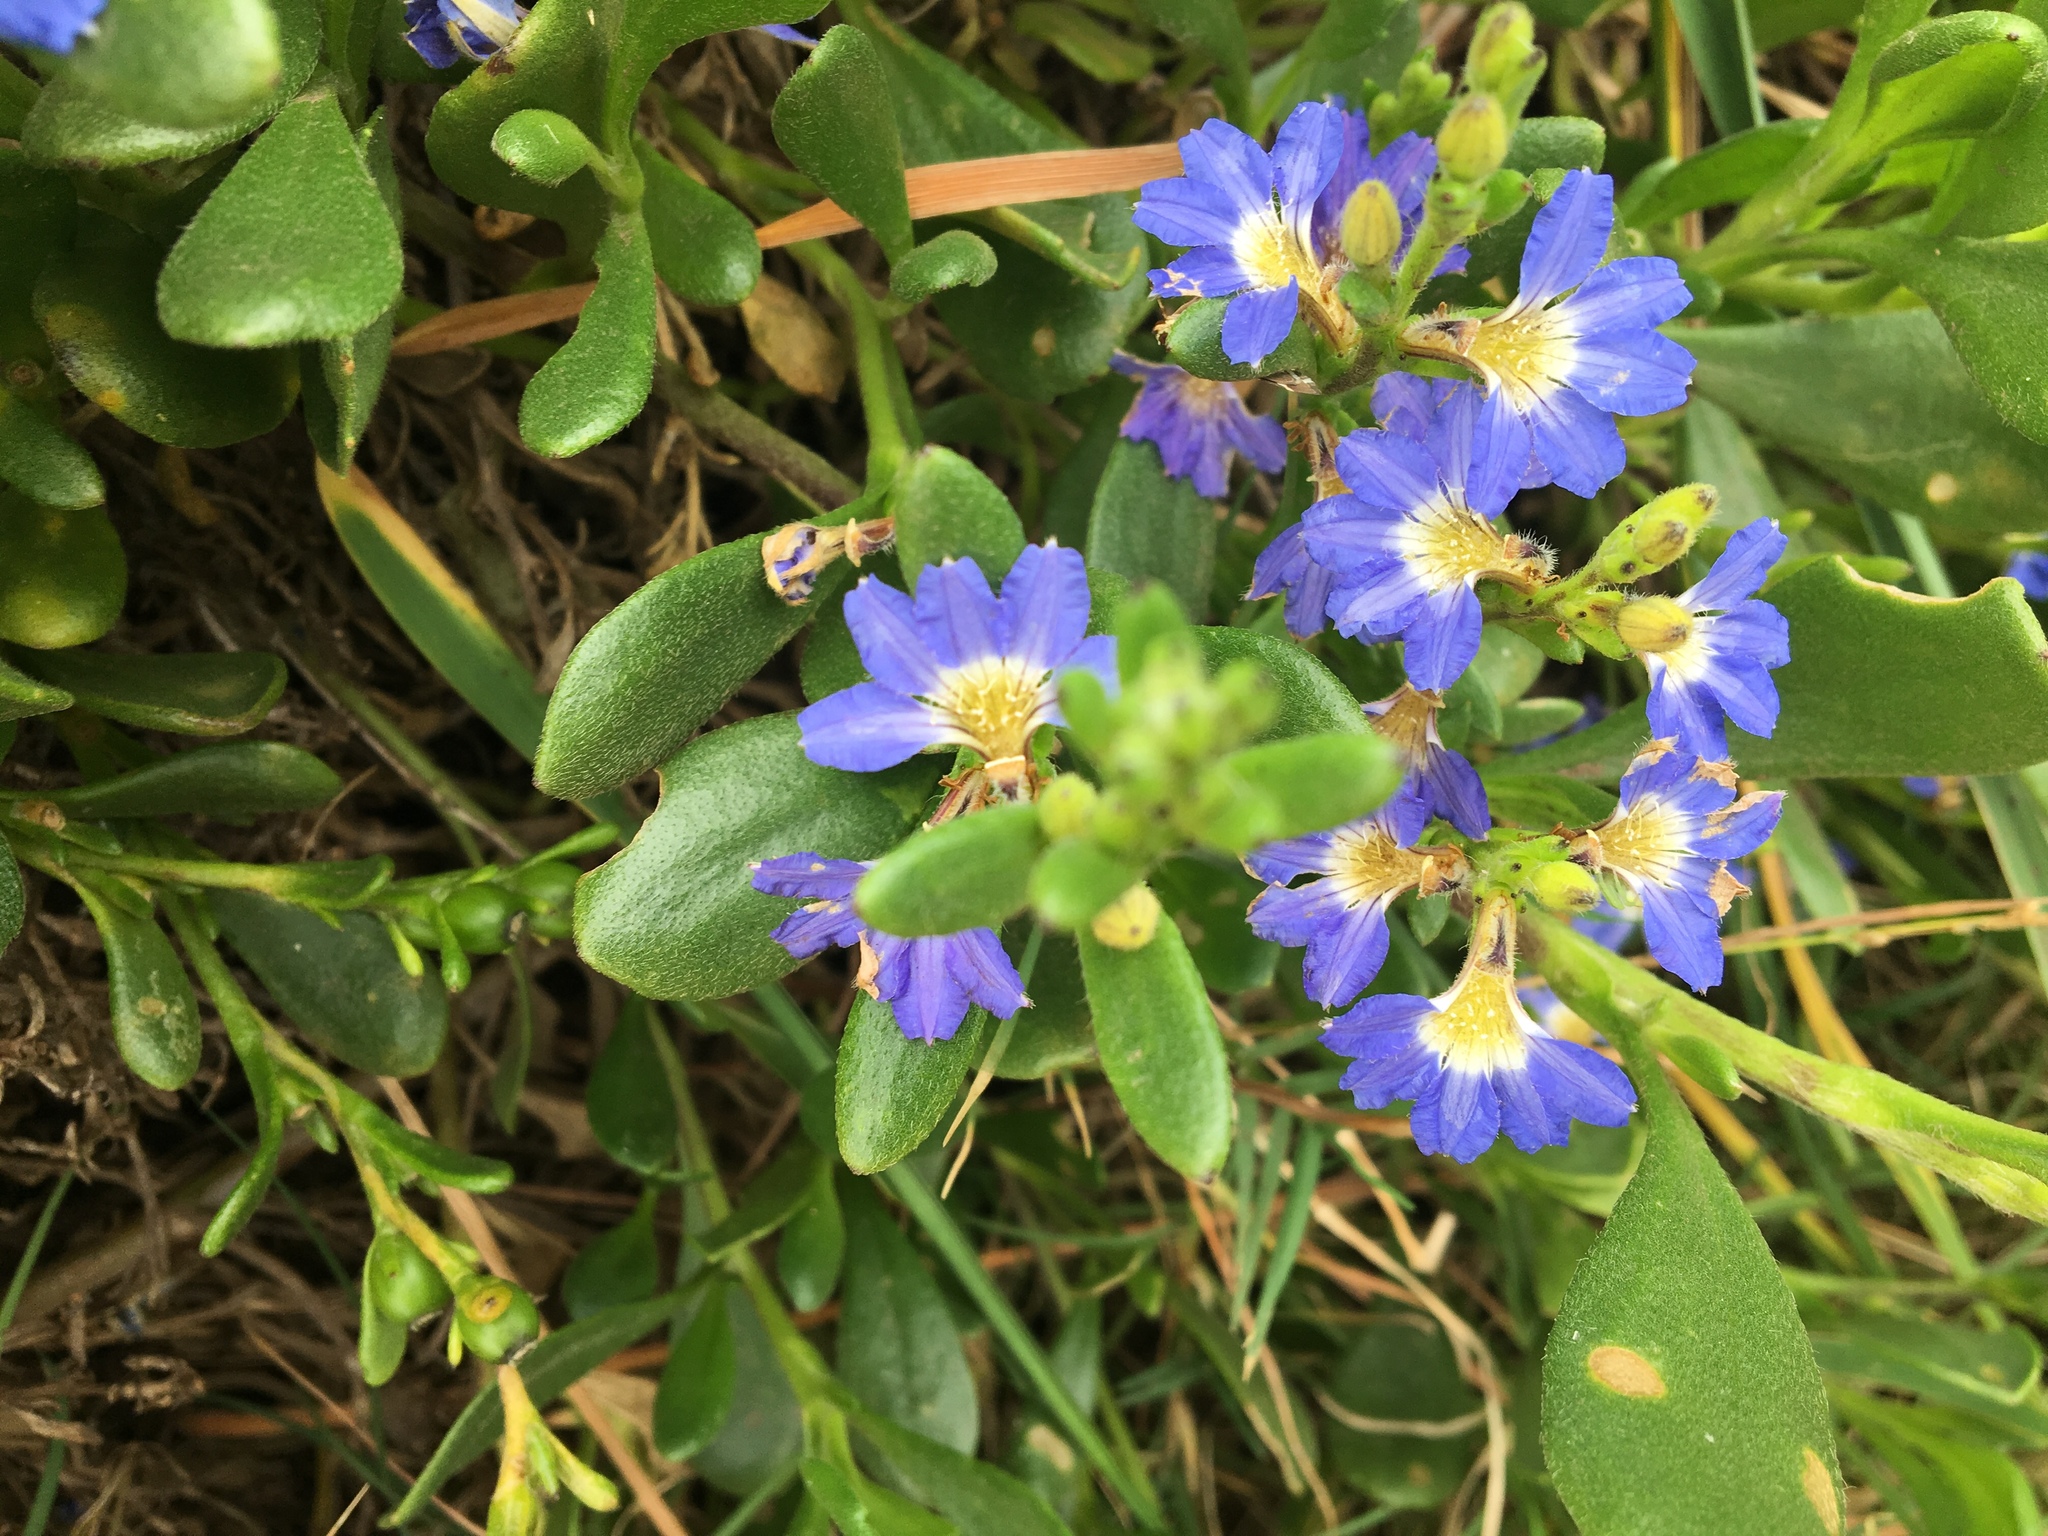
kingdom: Plantae
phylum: Tracheophyta
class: Magnoliopsida
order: Asterales
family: Goodeniaceae
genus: Scaevola
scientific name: Scaevola calendulacea
